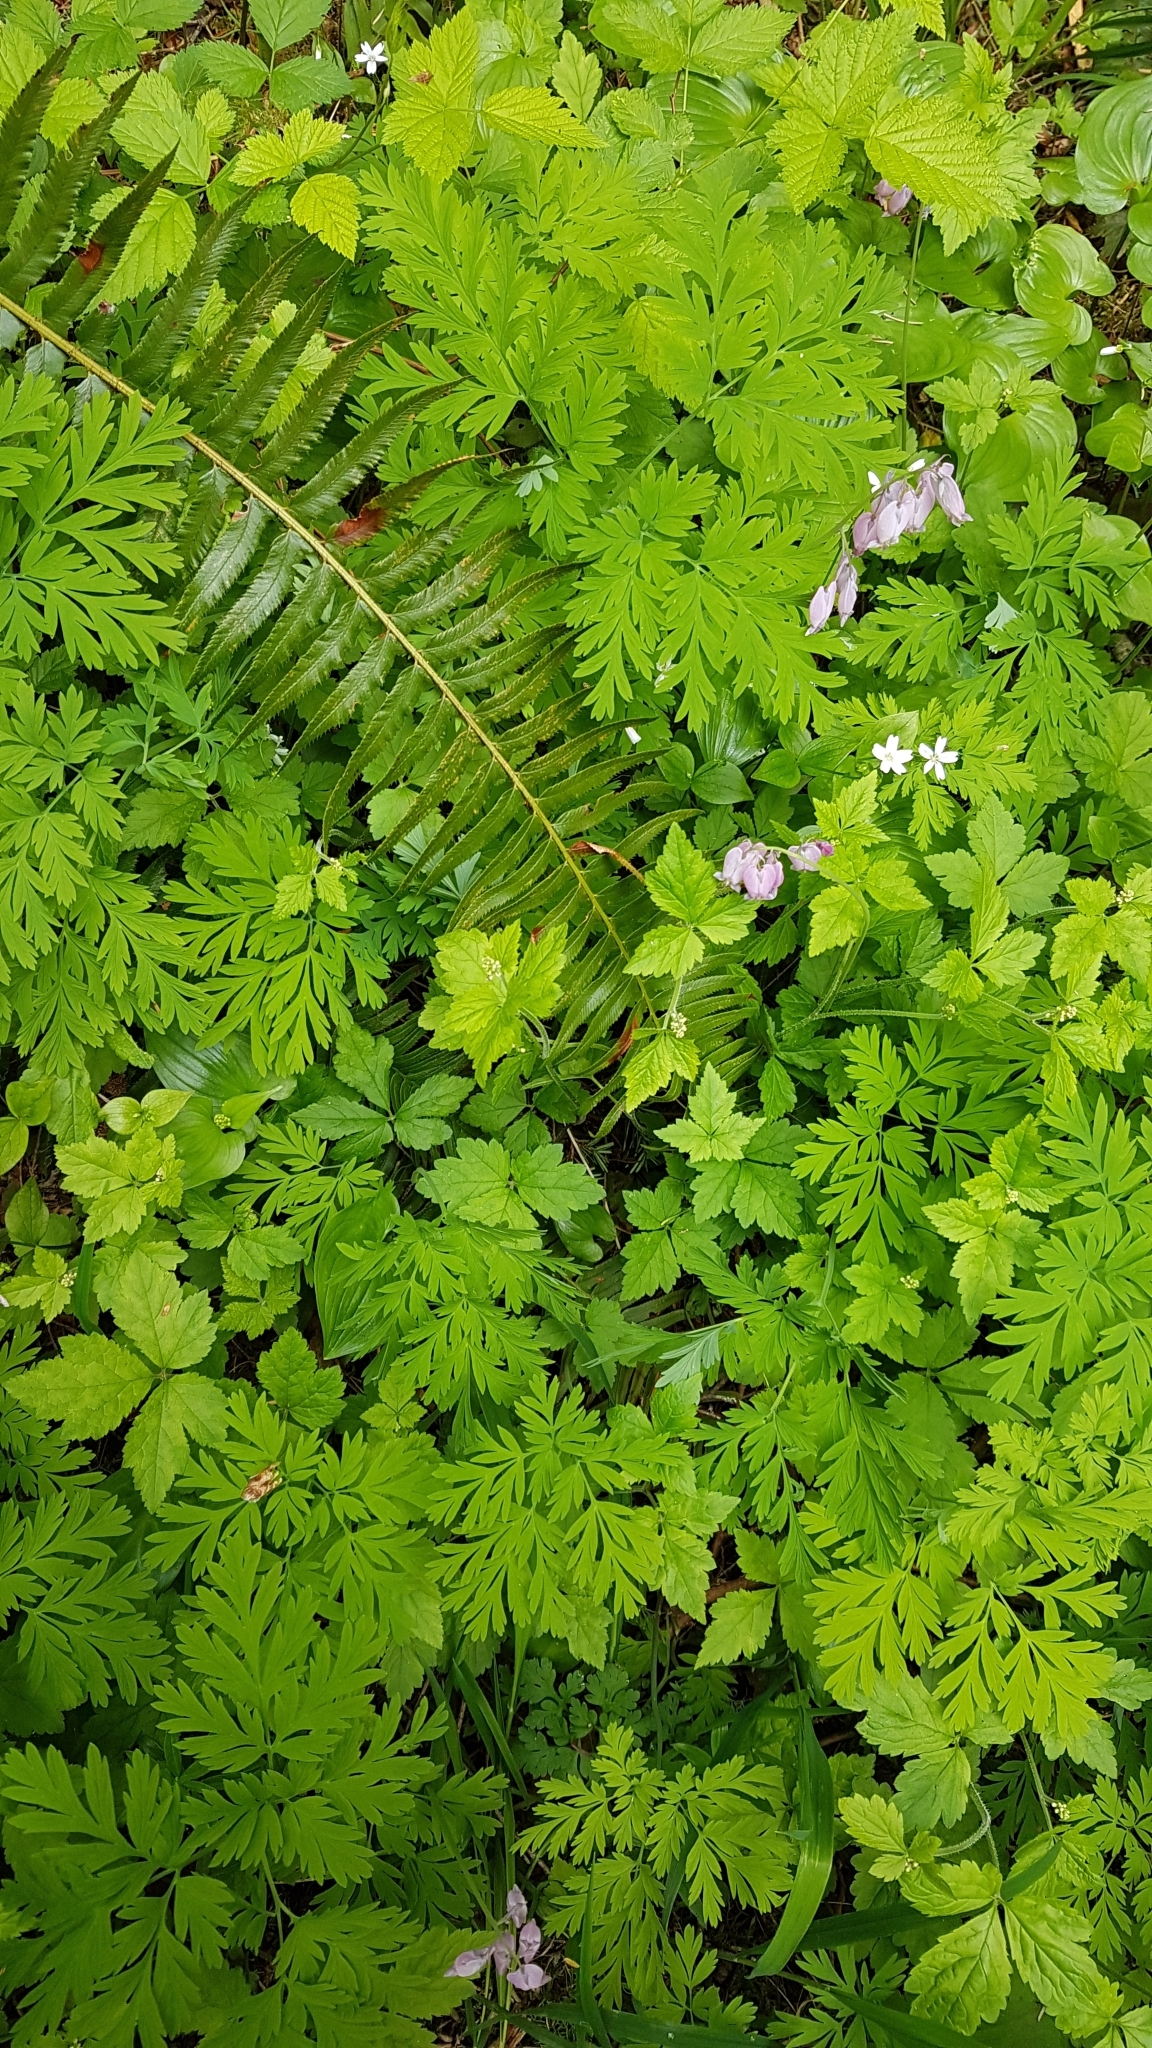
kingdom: Plantae
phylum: Tracheophyta
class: Magnoliopsida
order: Ranunculales
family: Papaveraceae
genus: Dicentra
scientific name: Dicentra formosa
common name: Bleeding-heart
